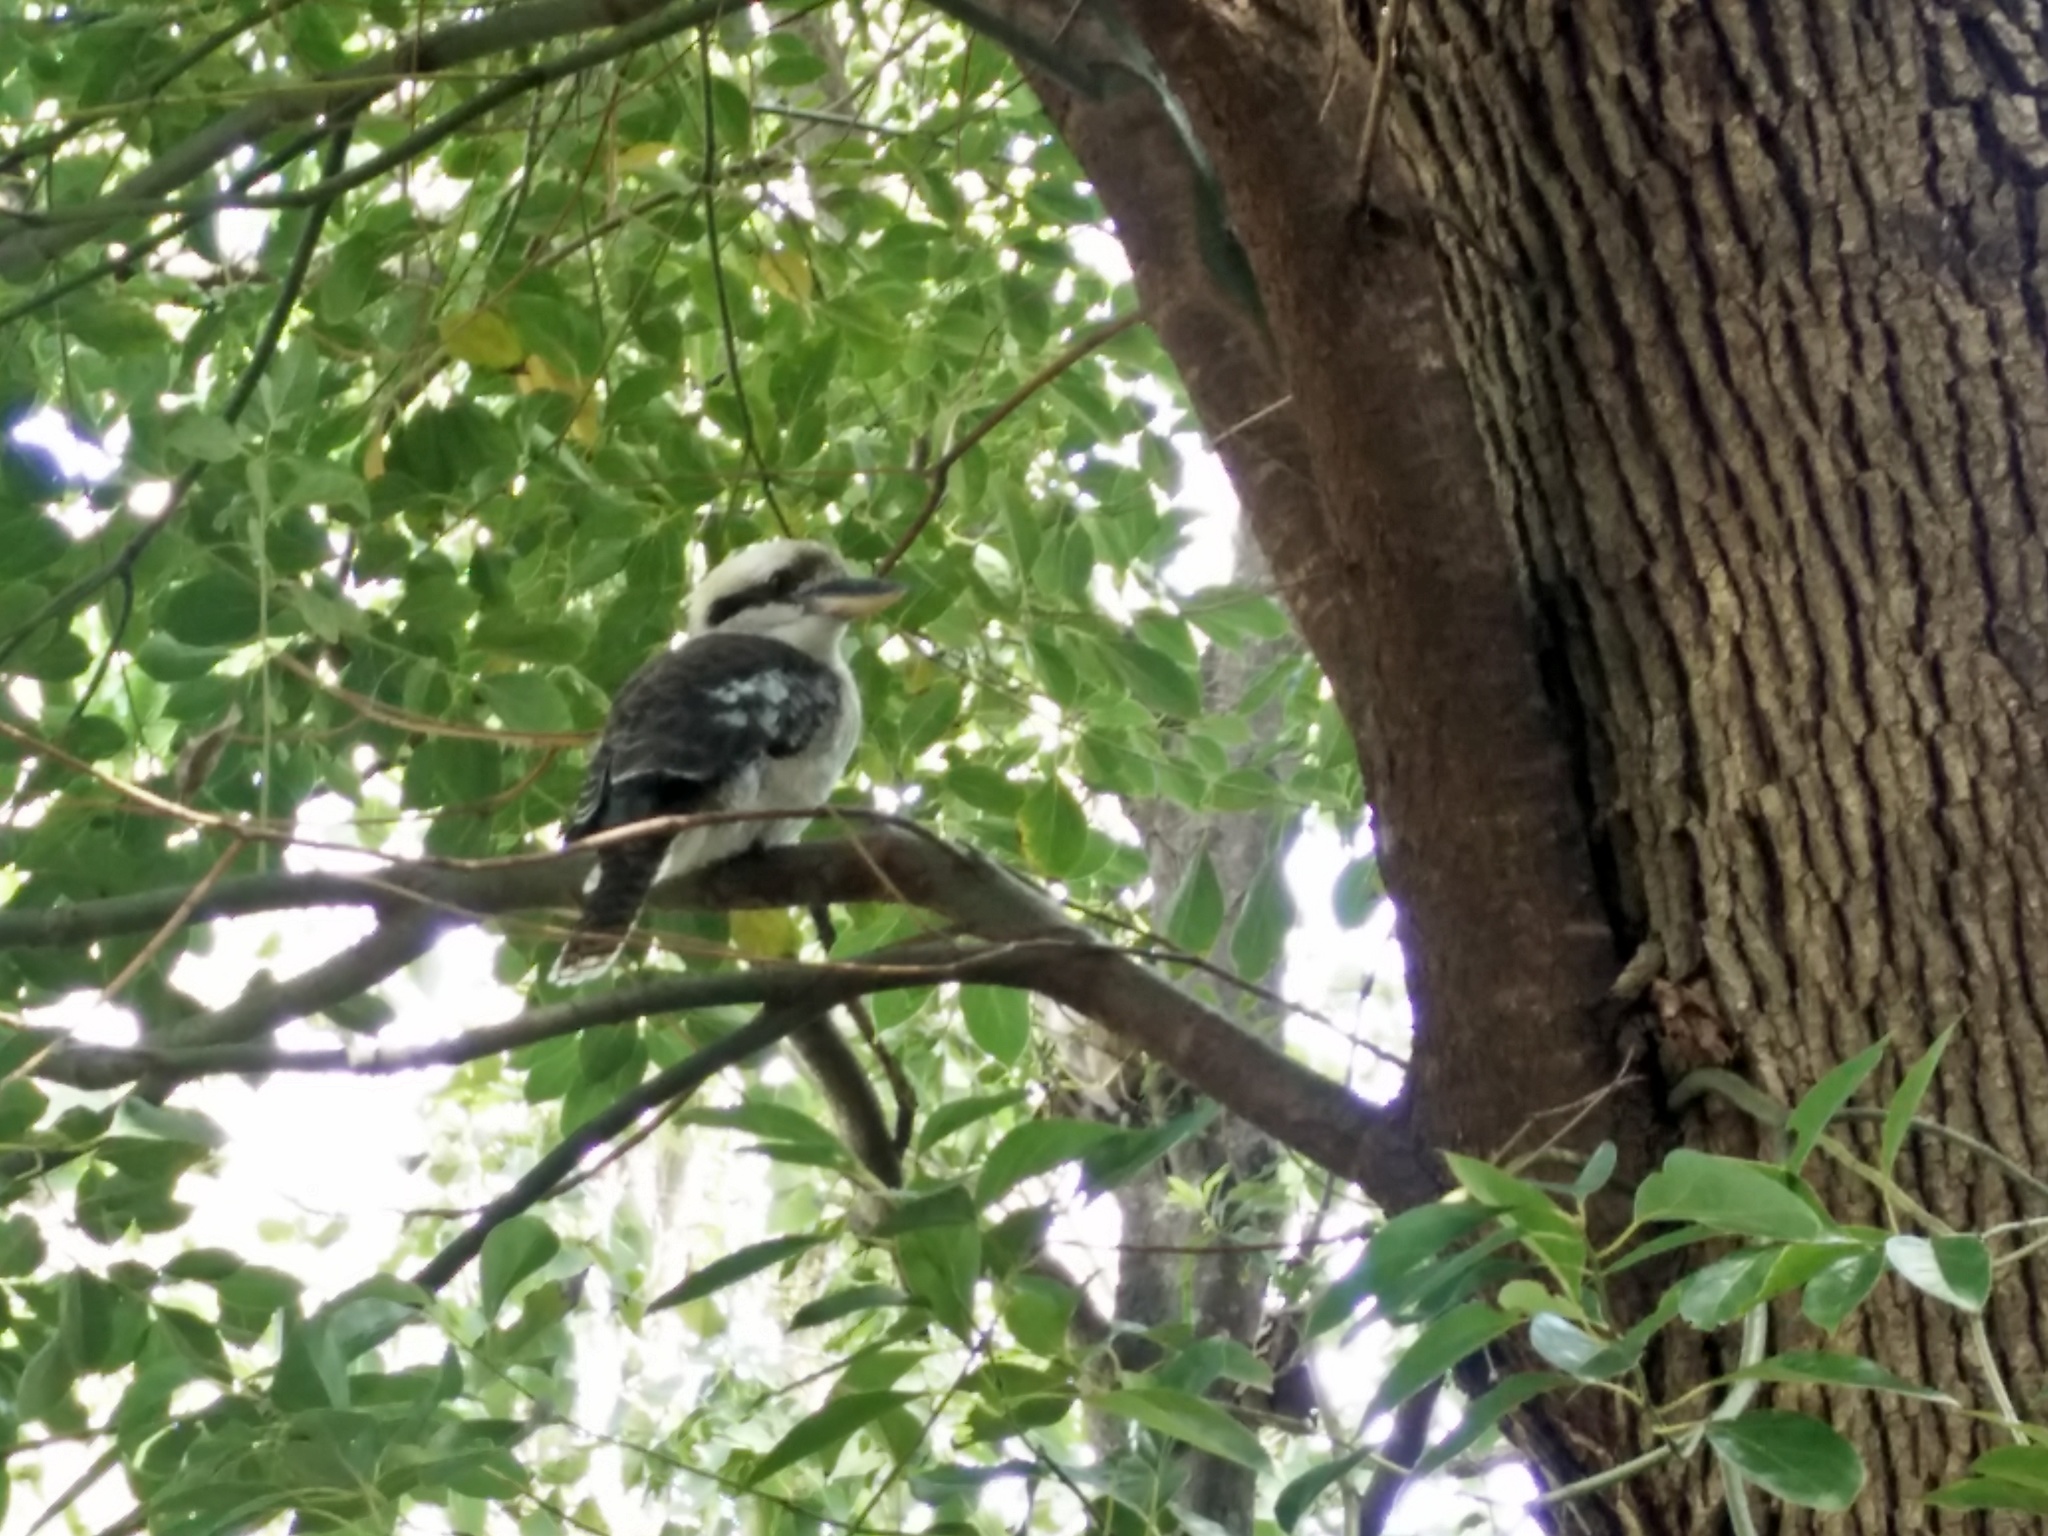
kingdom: Animalia
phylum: Chordata
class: Aves
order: Coraciiformes
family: Alcedinidae
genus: Dacelo
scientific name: Dacelo novaeguineae
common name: Laughing kookaburra
